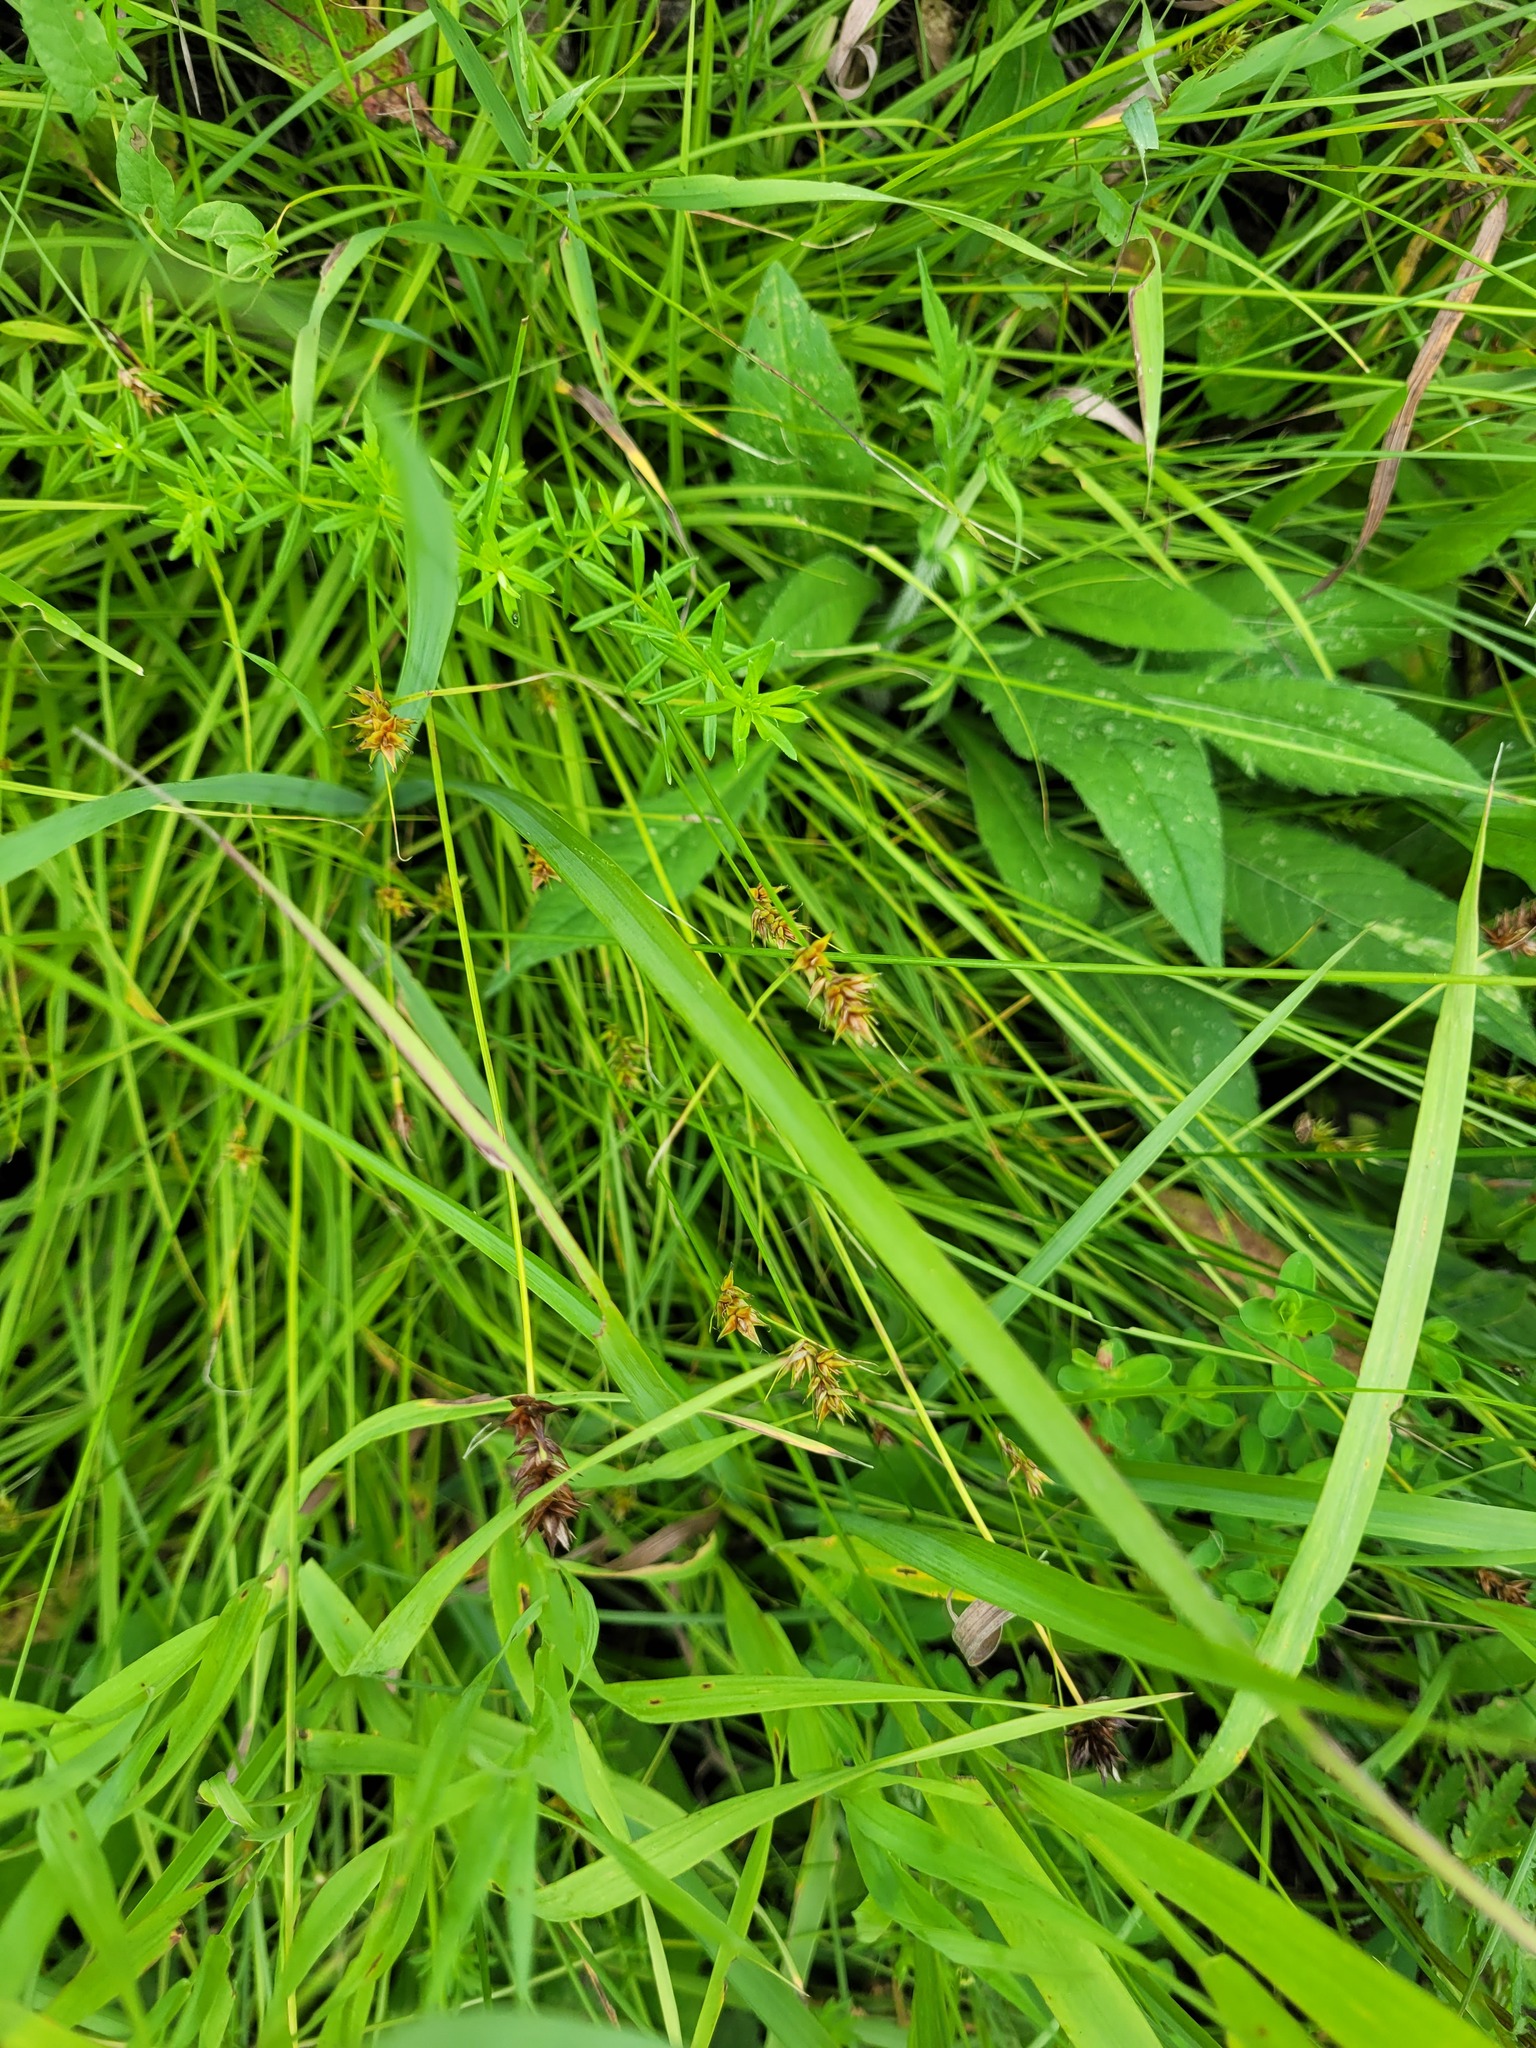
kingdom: Plantae
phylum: Tracheophyta
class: Liliopsida
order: Poales
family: Cyperaceae
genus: Carex
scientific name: Carex spicata
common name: Spiked sedge
